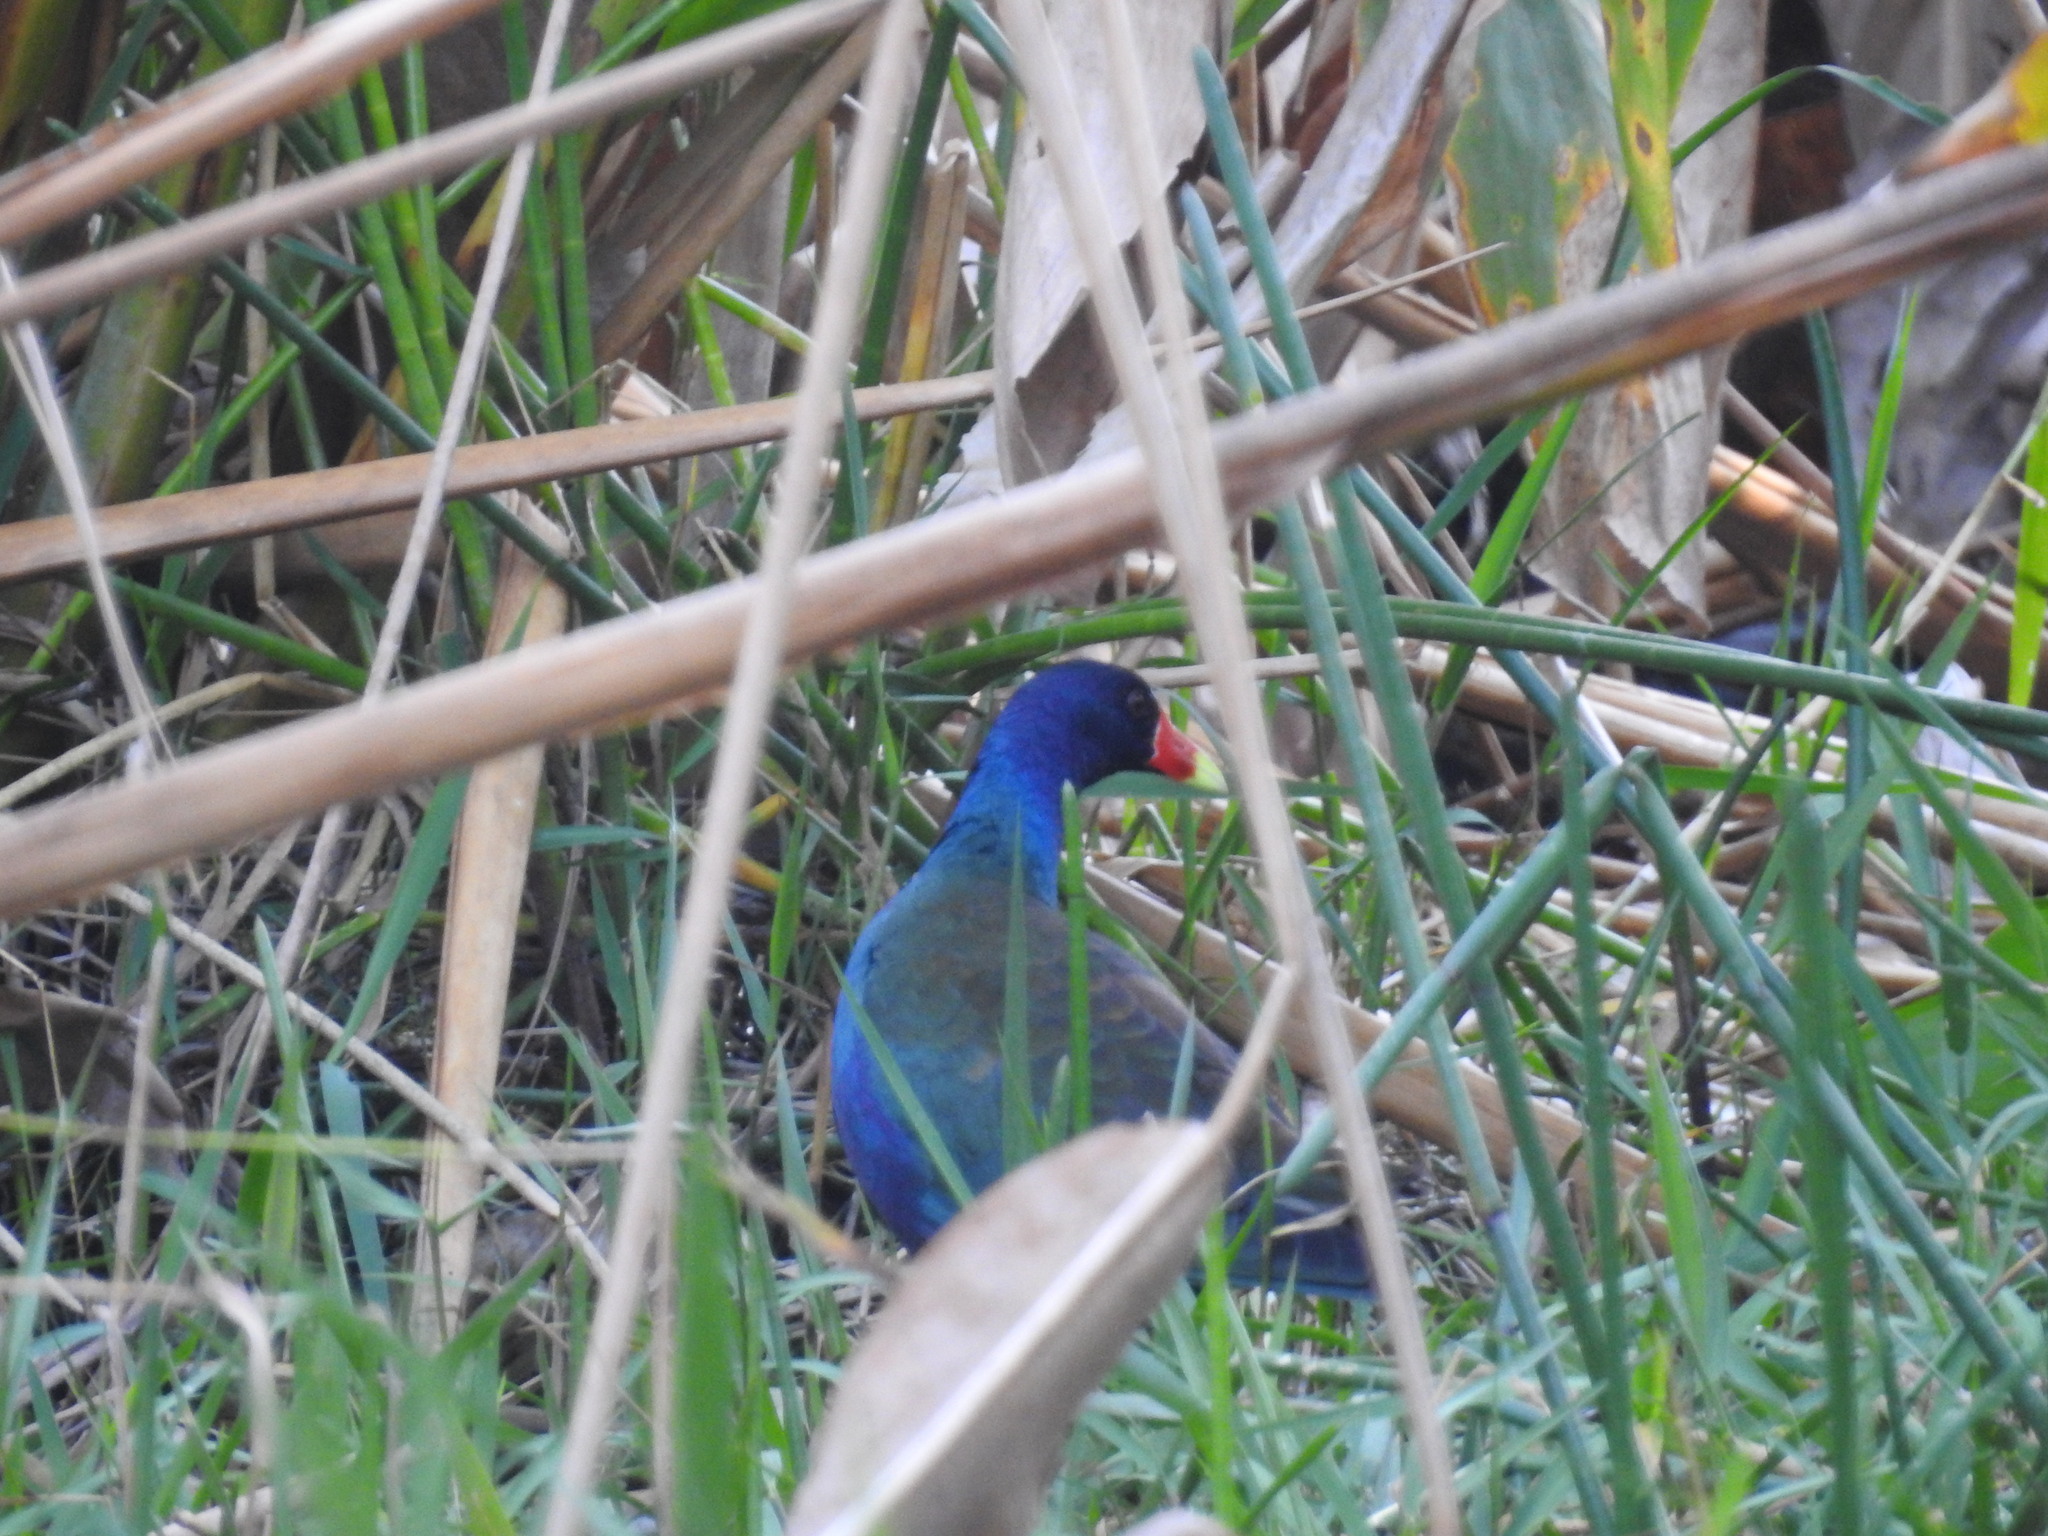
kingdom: Animalia
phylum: Chordata
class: Aves
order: Gruiformes
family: Rallidae
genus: Porphyrio
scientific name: Porphyrio martinica
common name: Purple gallinule
